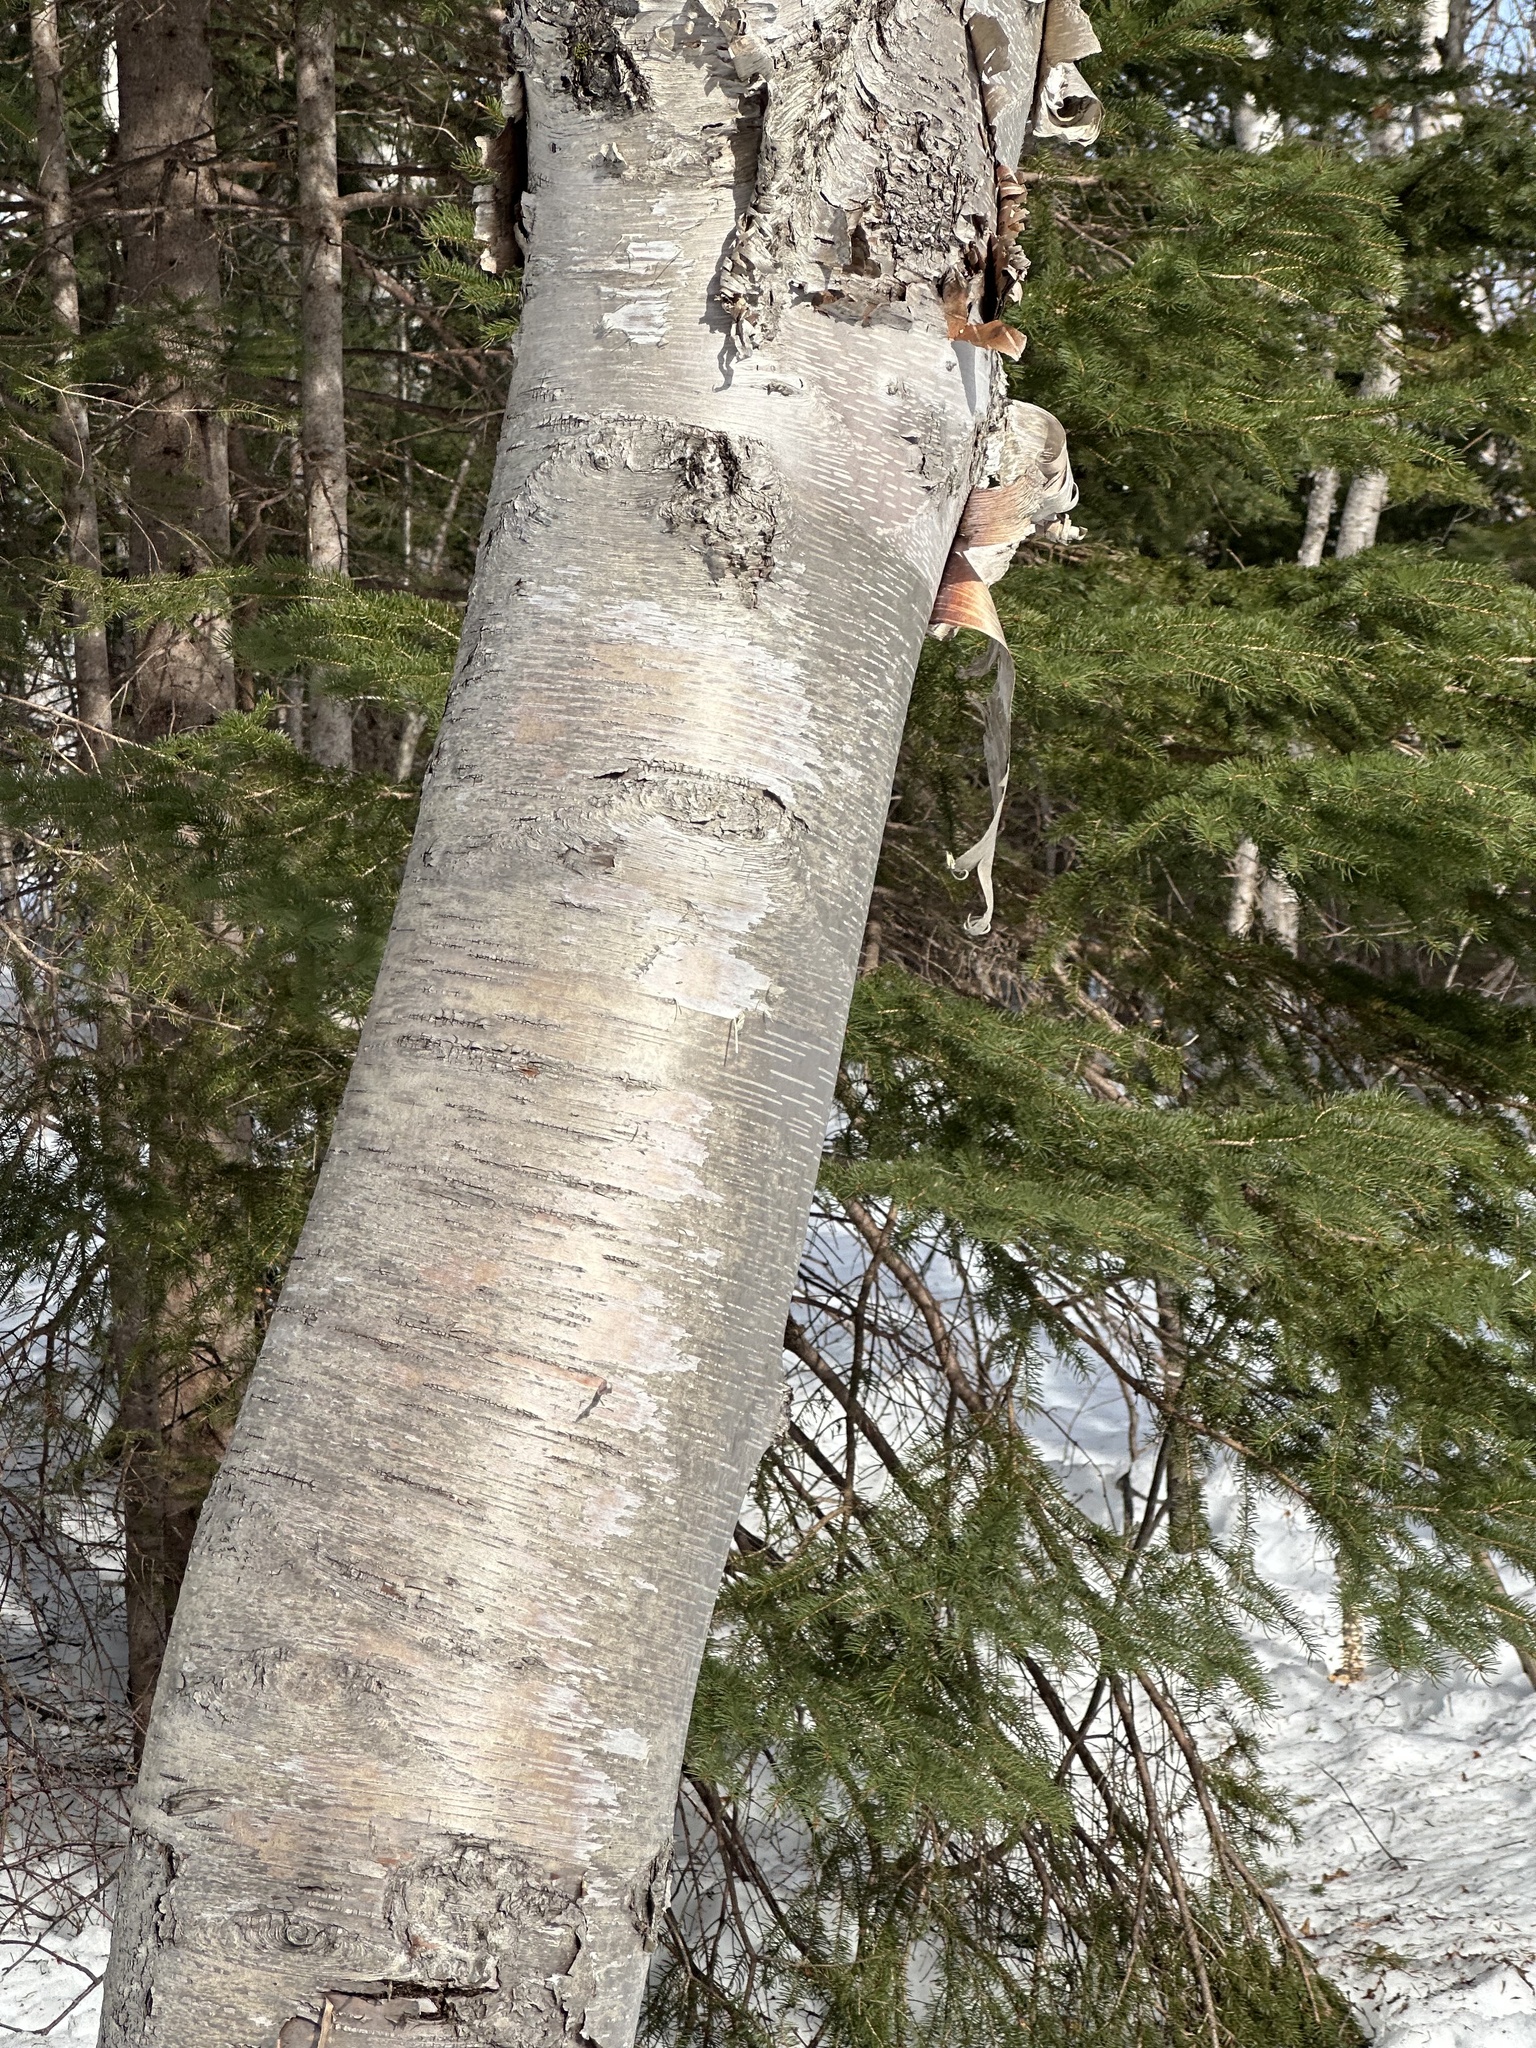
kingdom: Plantae
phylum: Tracheophyta
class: Magnoliopsida
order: Fagales
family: Betulaceae
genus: Betula
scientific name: Betula papyrifera
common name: Paper birch
